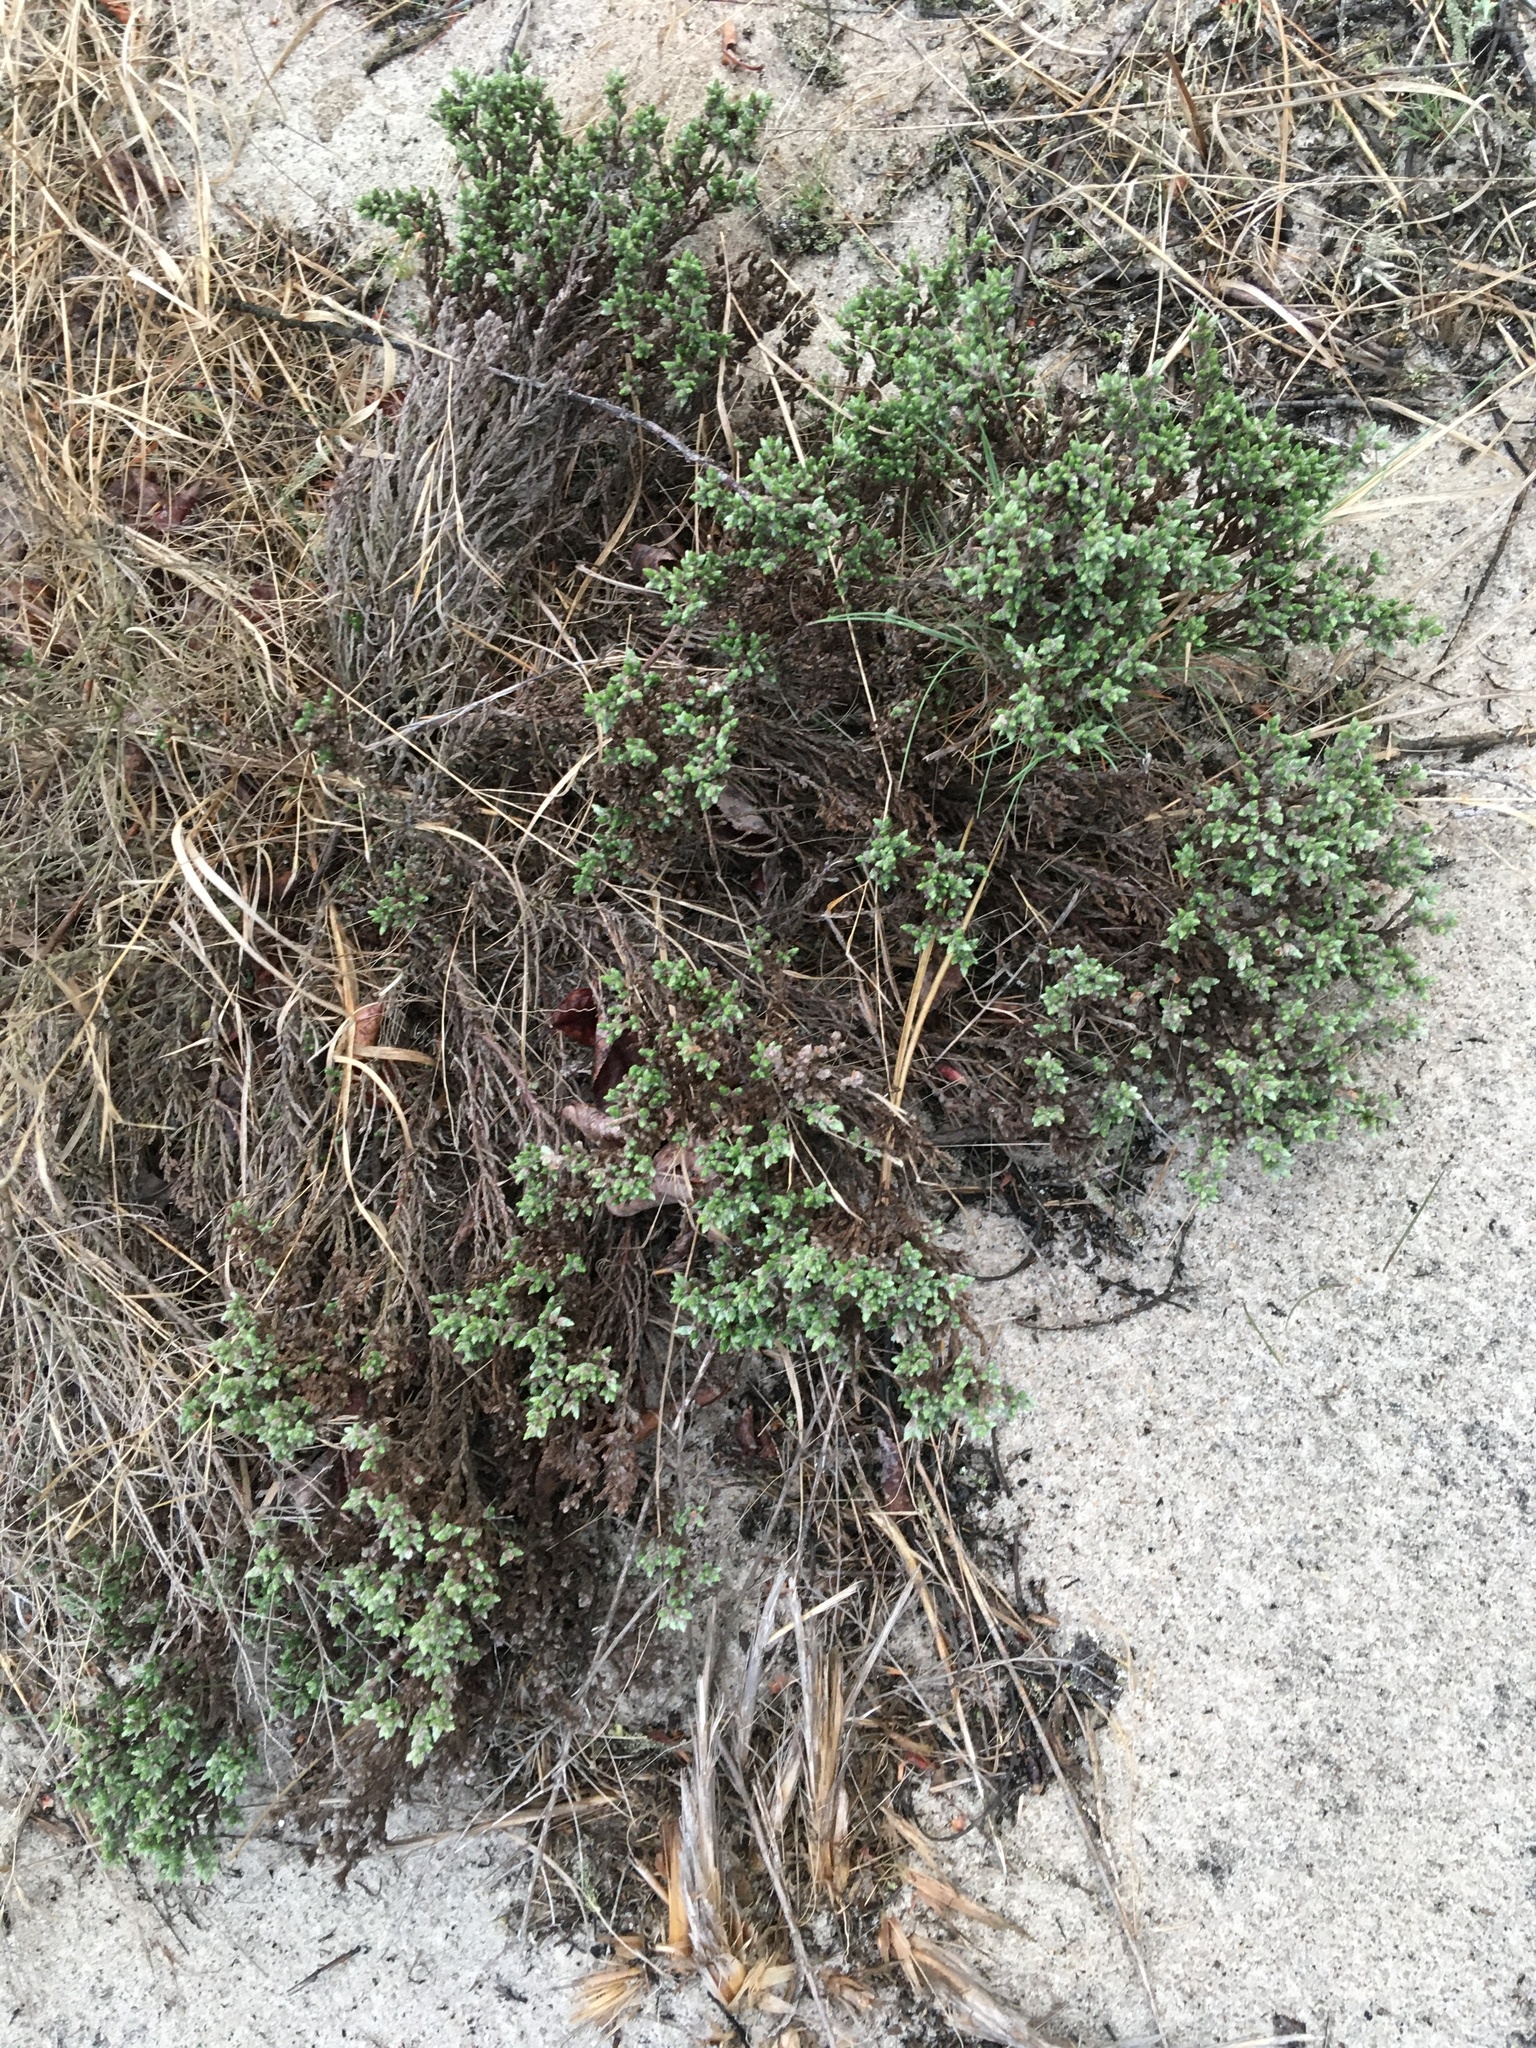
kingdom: Plantae
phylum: Tracheophyta
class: Magnoliopsida
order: Malvales
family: Cistaceae
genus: Hudsonia
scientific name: Hudsonia tomentosa
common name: Beach-heath
